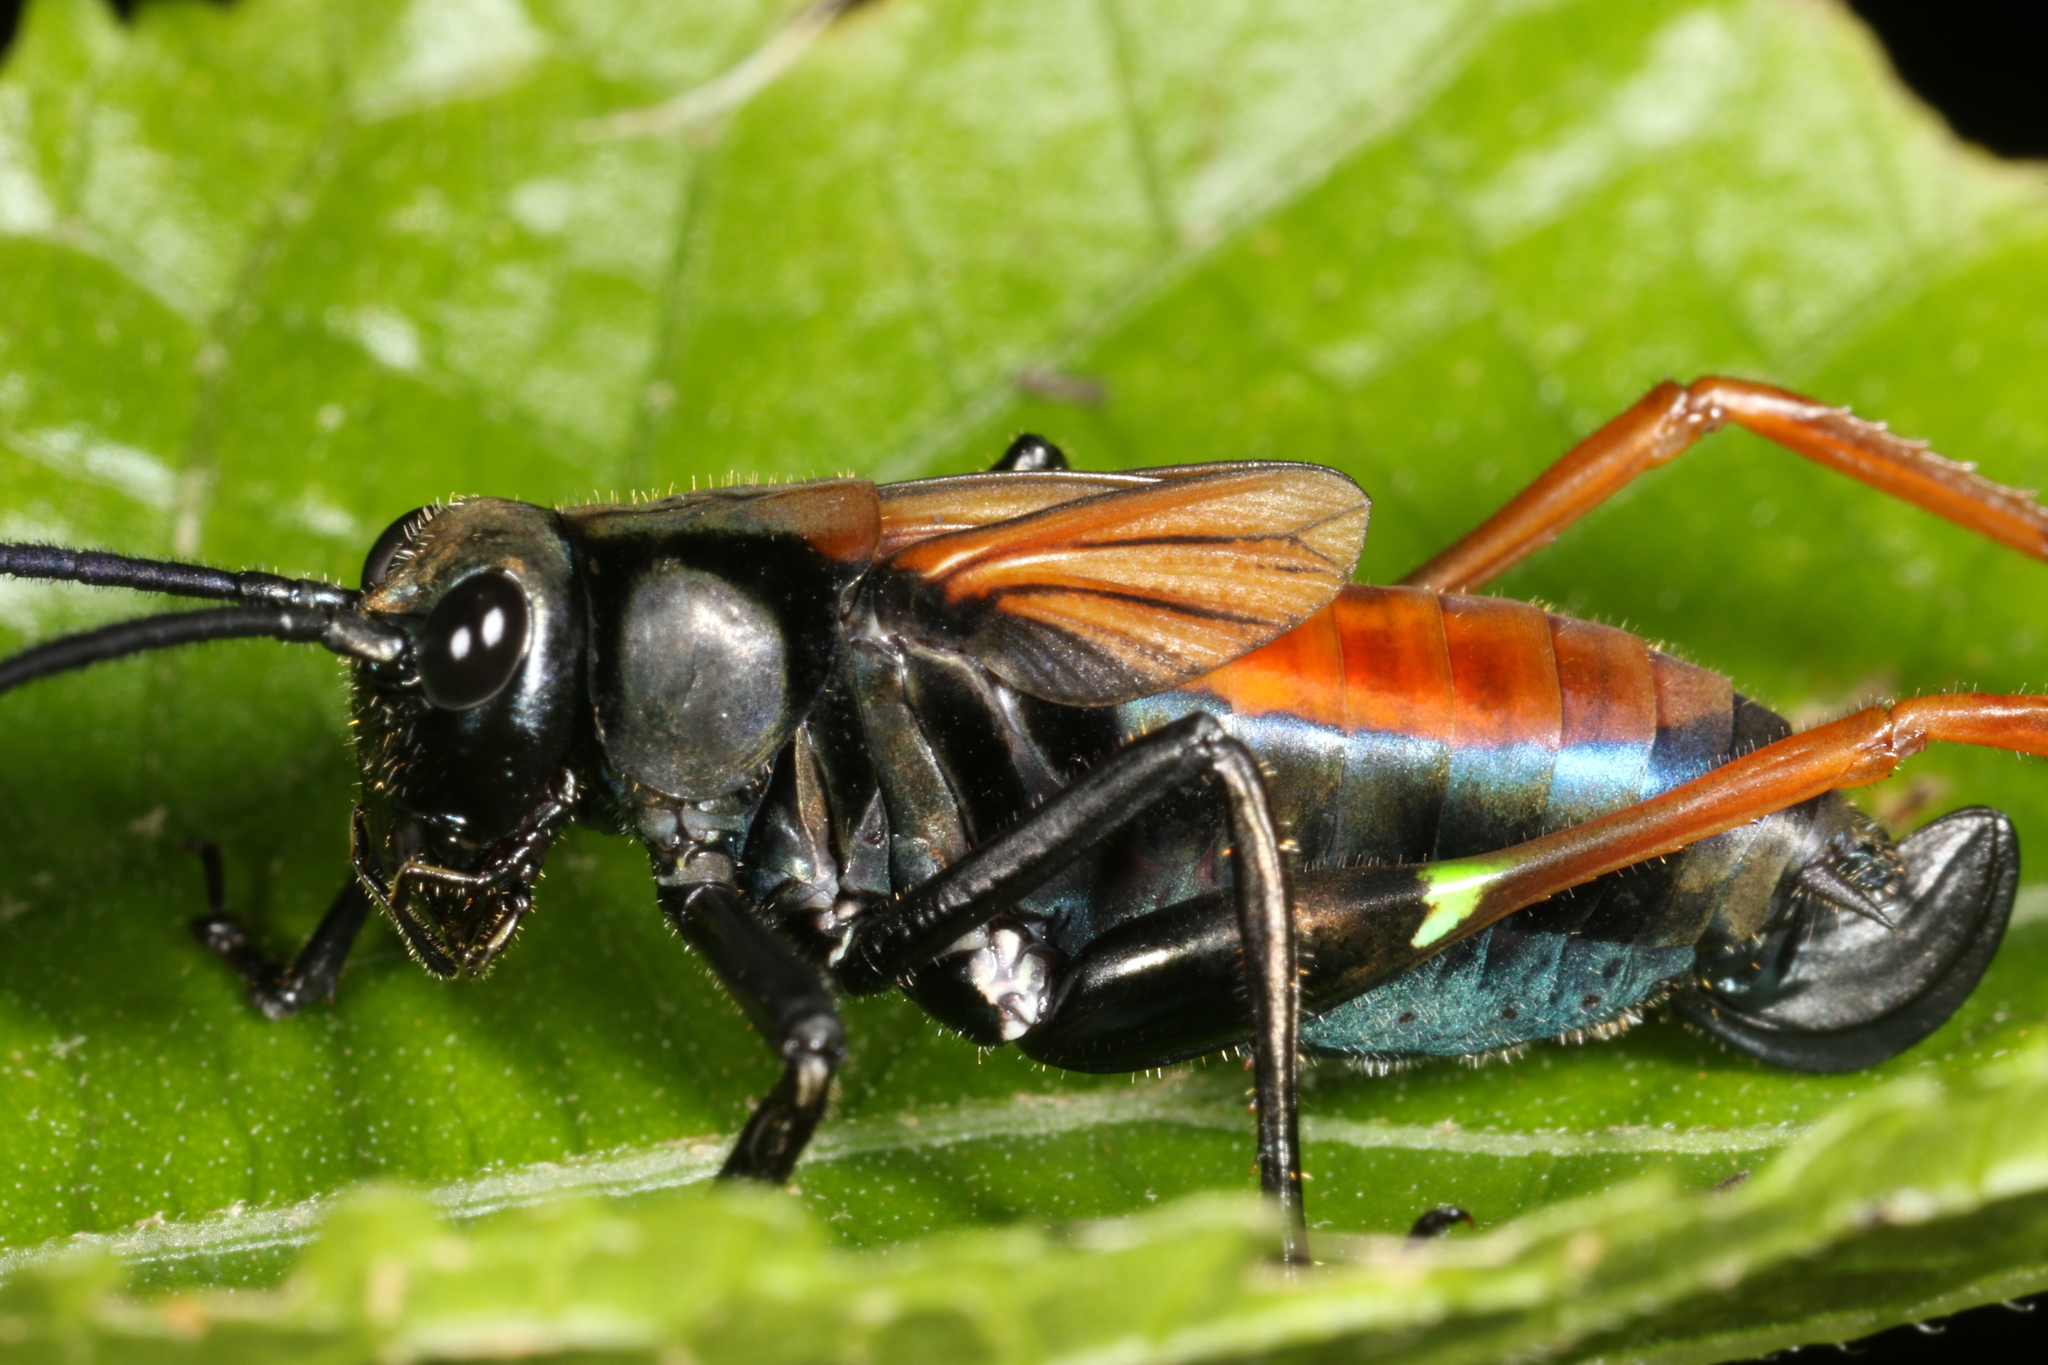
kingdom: Animalia
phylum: Arthropoda
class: Insecta
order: Orthoptera
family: Tettigoniidae
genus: Scaphura
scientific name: Scaphura nigra
